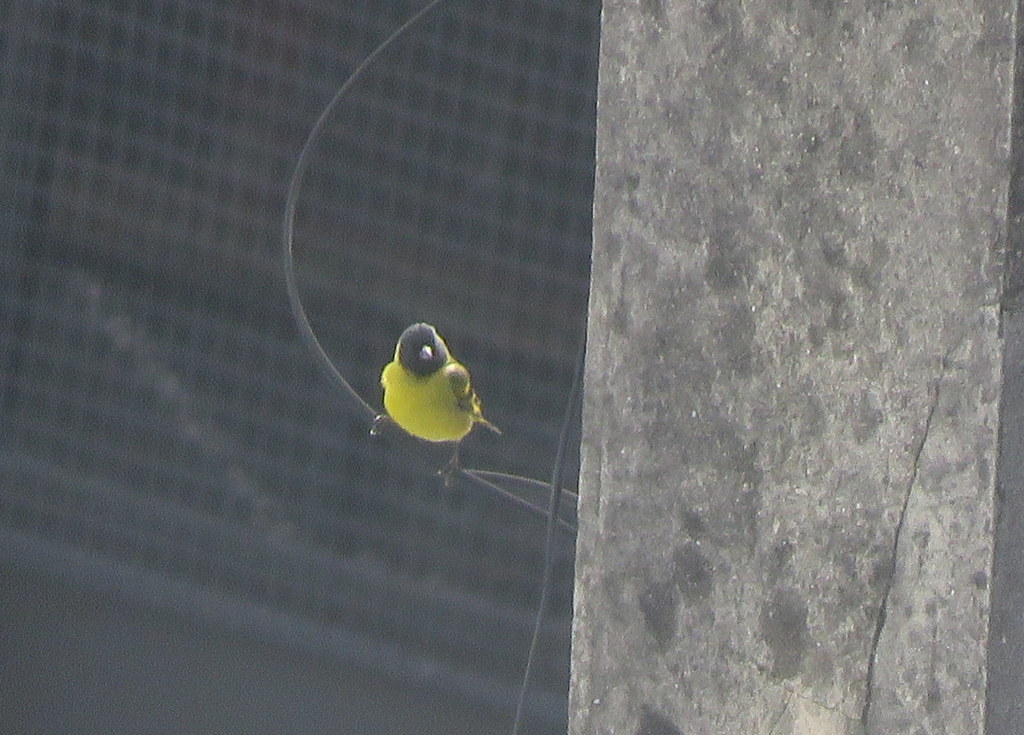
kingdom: Animalia
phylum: Chordata
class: Aves
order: Passeriformes
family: Fringillidae
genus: Spinus
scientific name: Spinus magellanicus
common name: Hooded siskin
